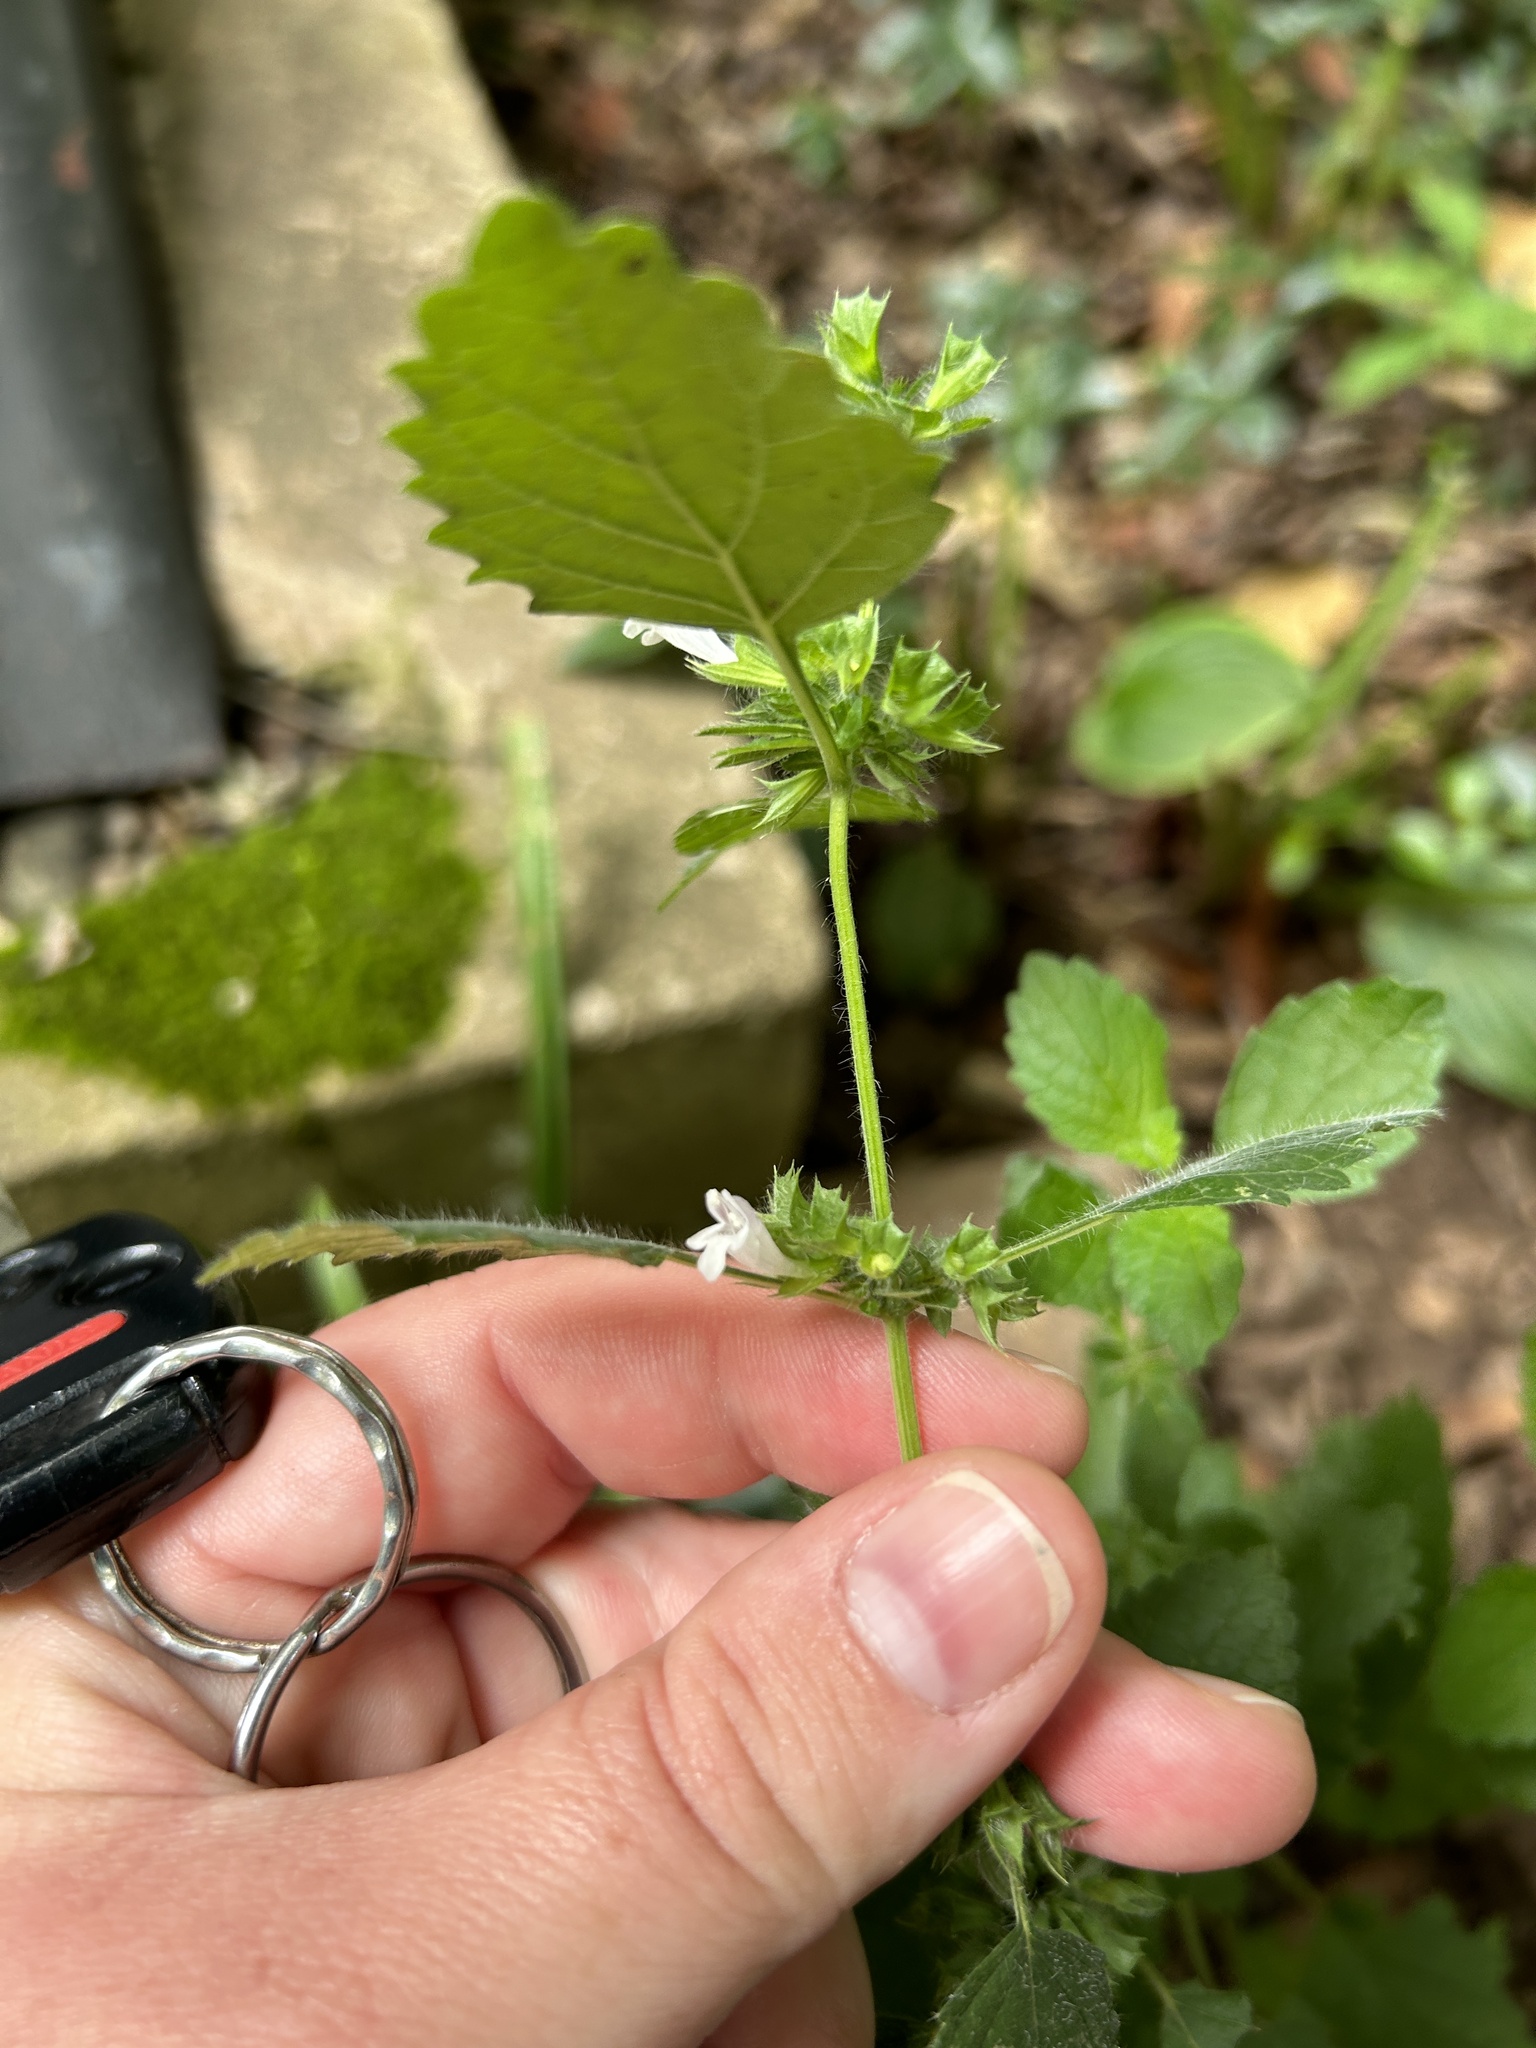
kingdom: Plantae
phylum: Tracheophyta
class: Magnoliopsida
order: Lamiales
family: Lamiaceae
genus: Melissa
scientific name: Melissa officinalis
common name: Balm
